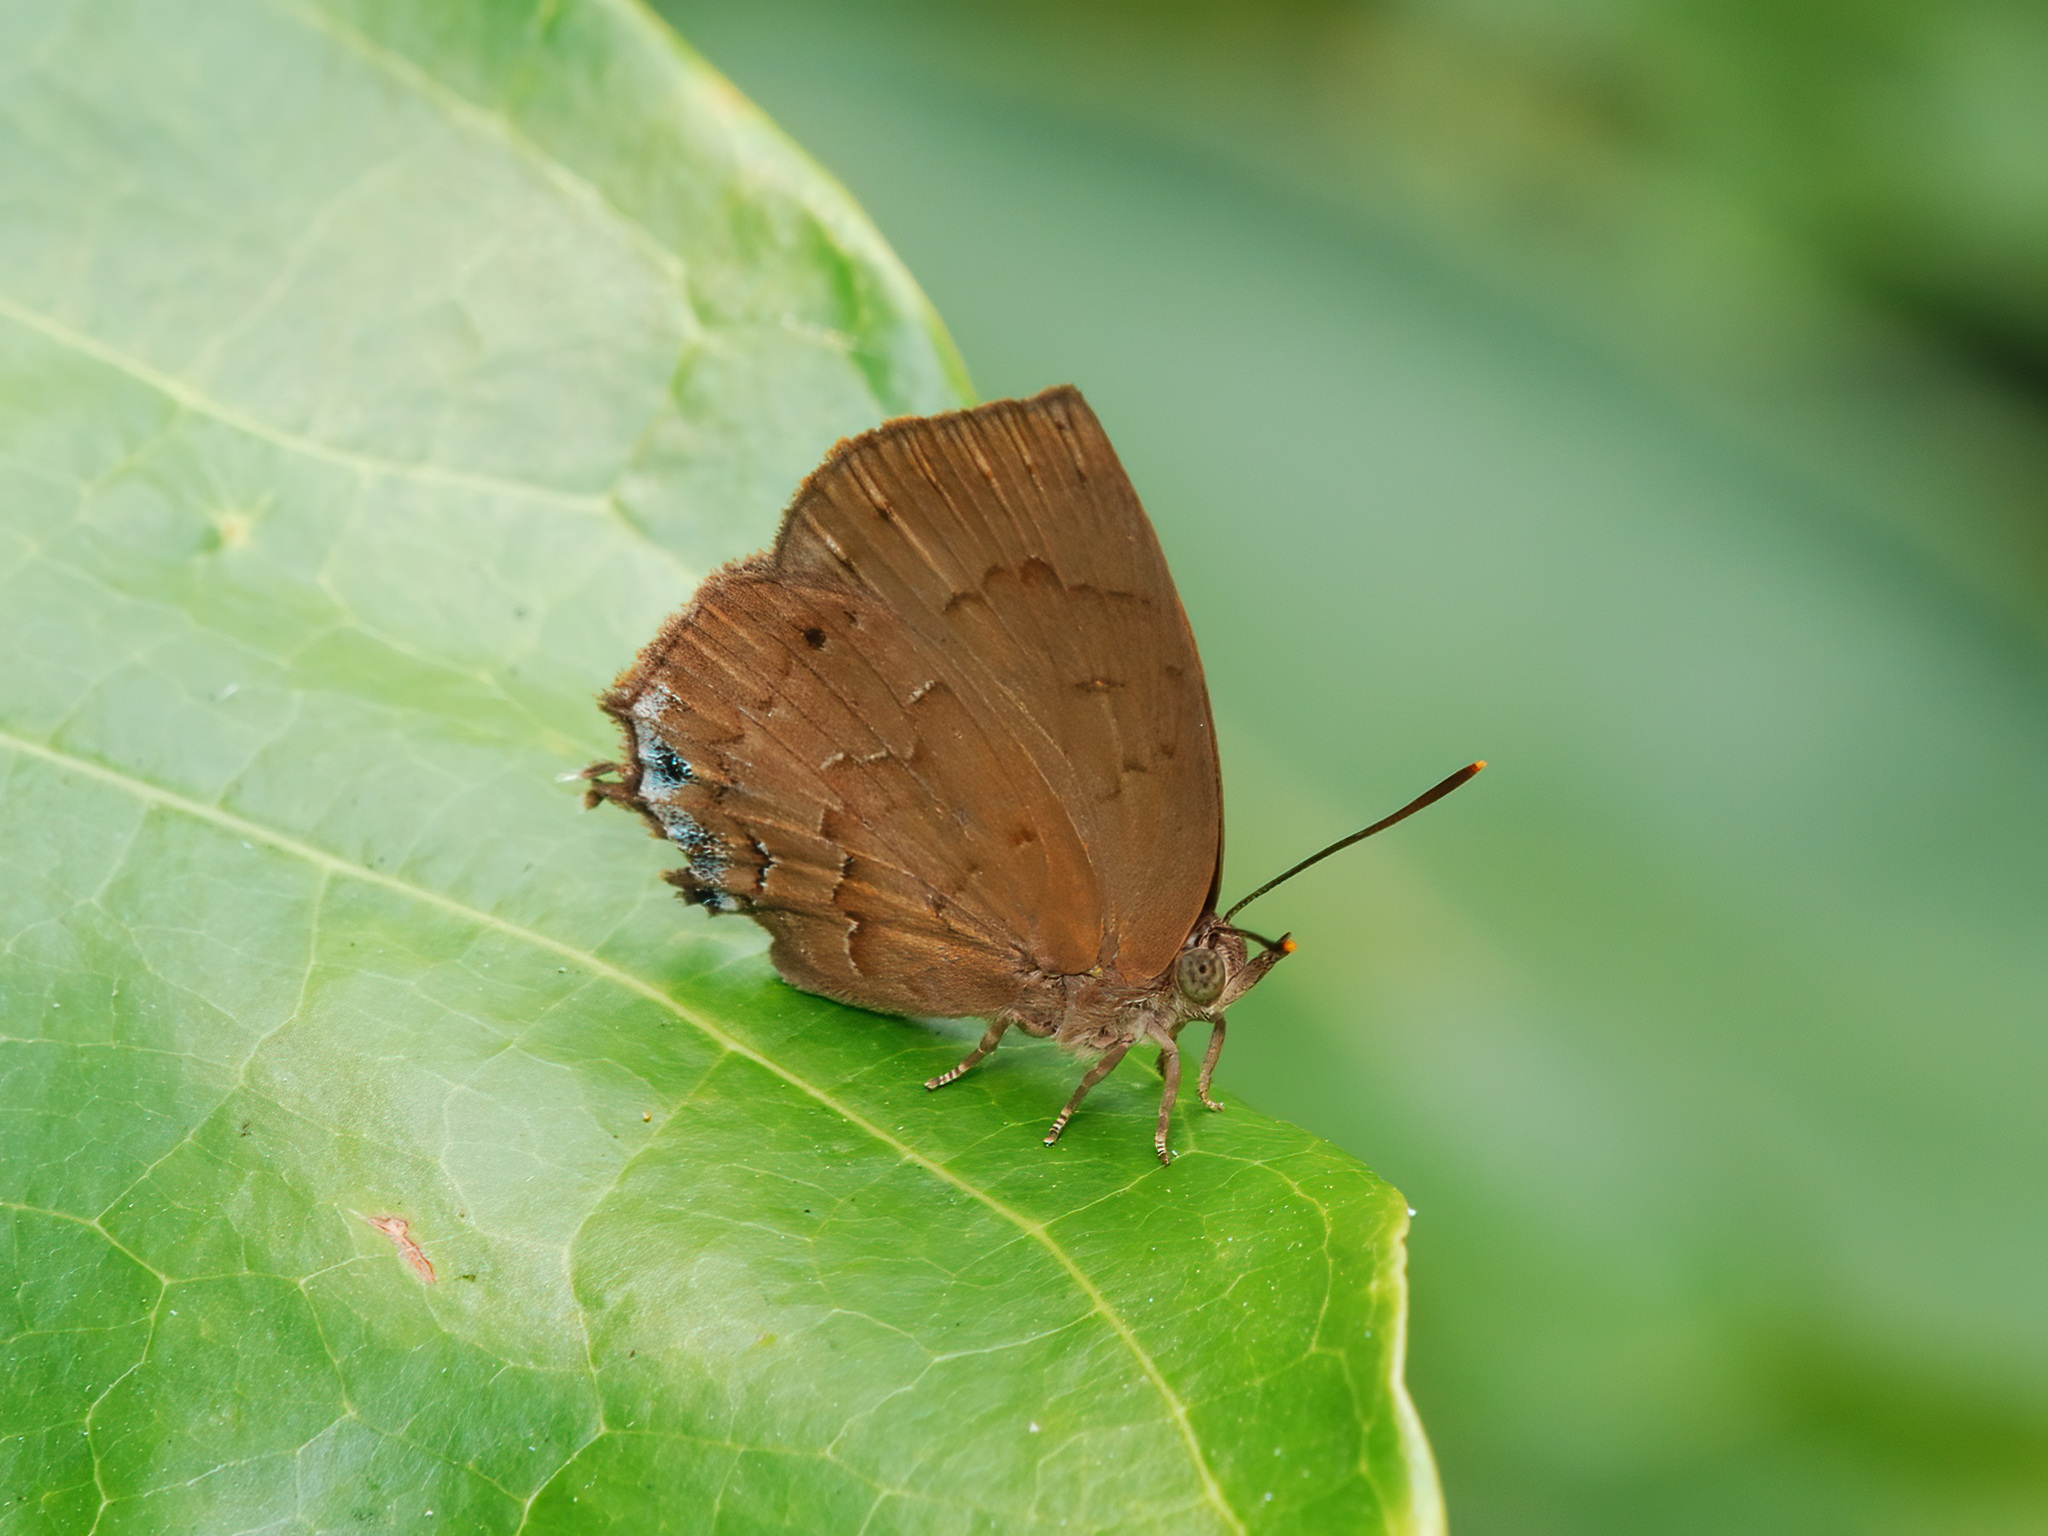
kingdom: Animalia
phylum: Arthropoda
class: Insecta
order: Lepidoptera
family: Lycaenidae
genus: Surendra
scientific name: Surendra vivarna
